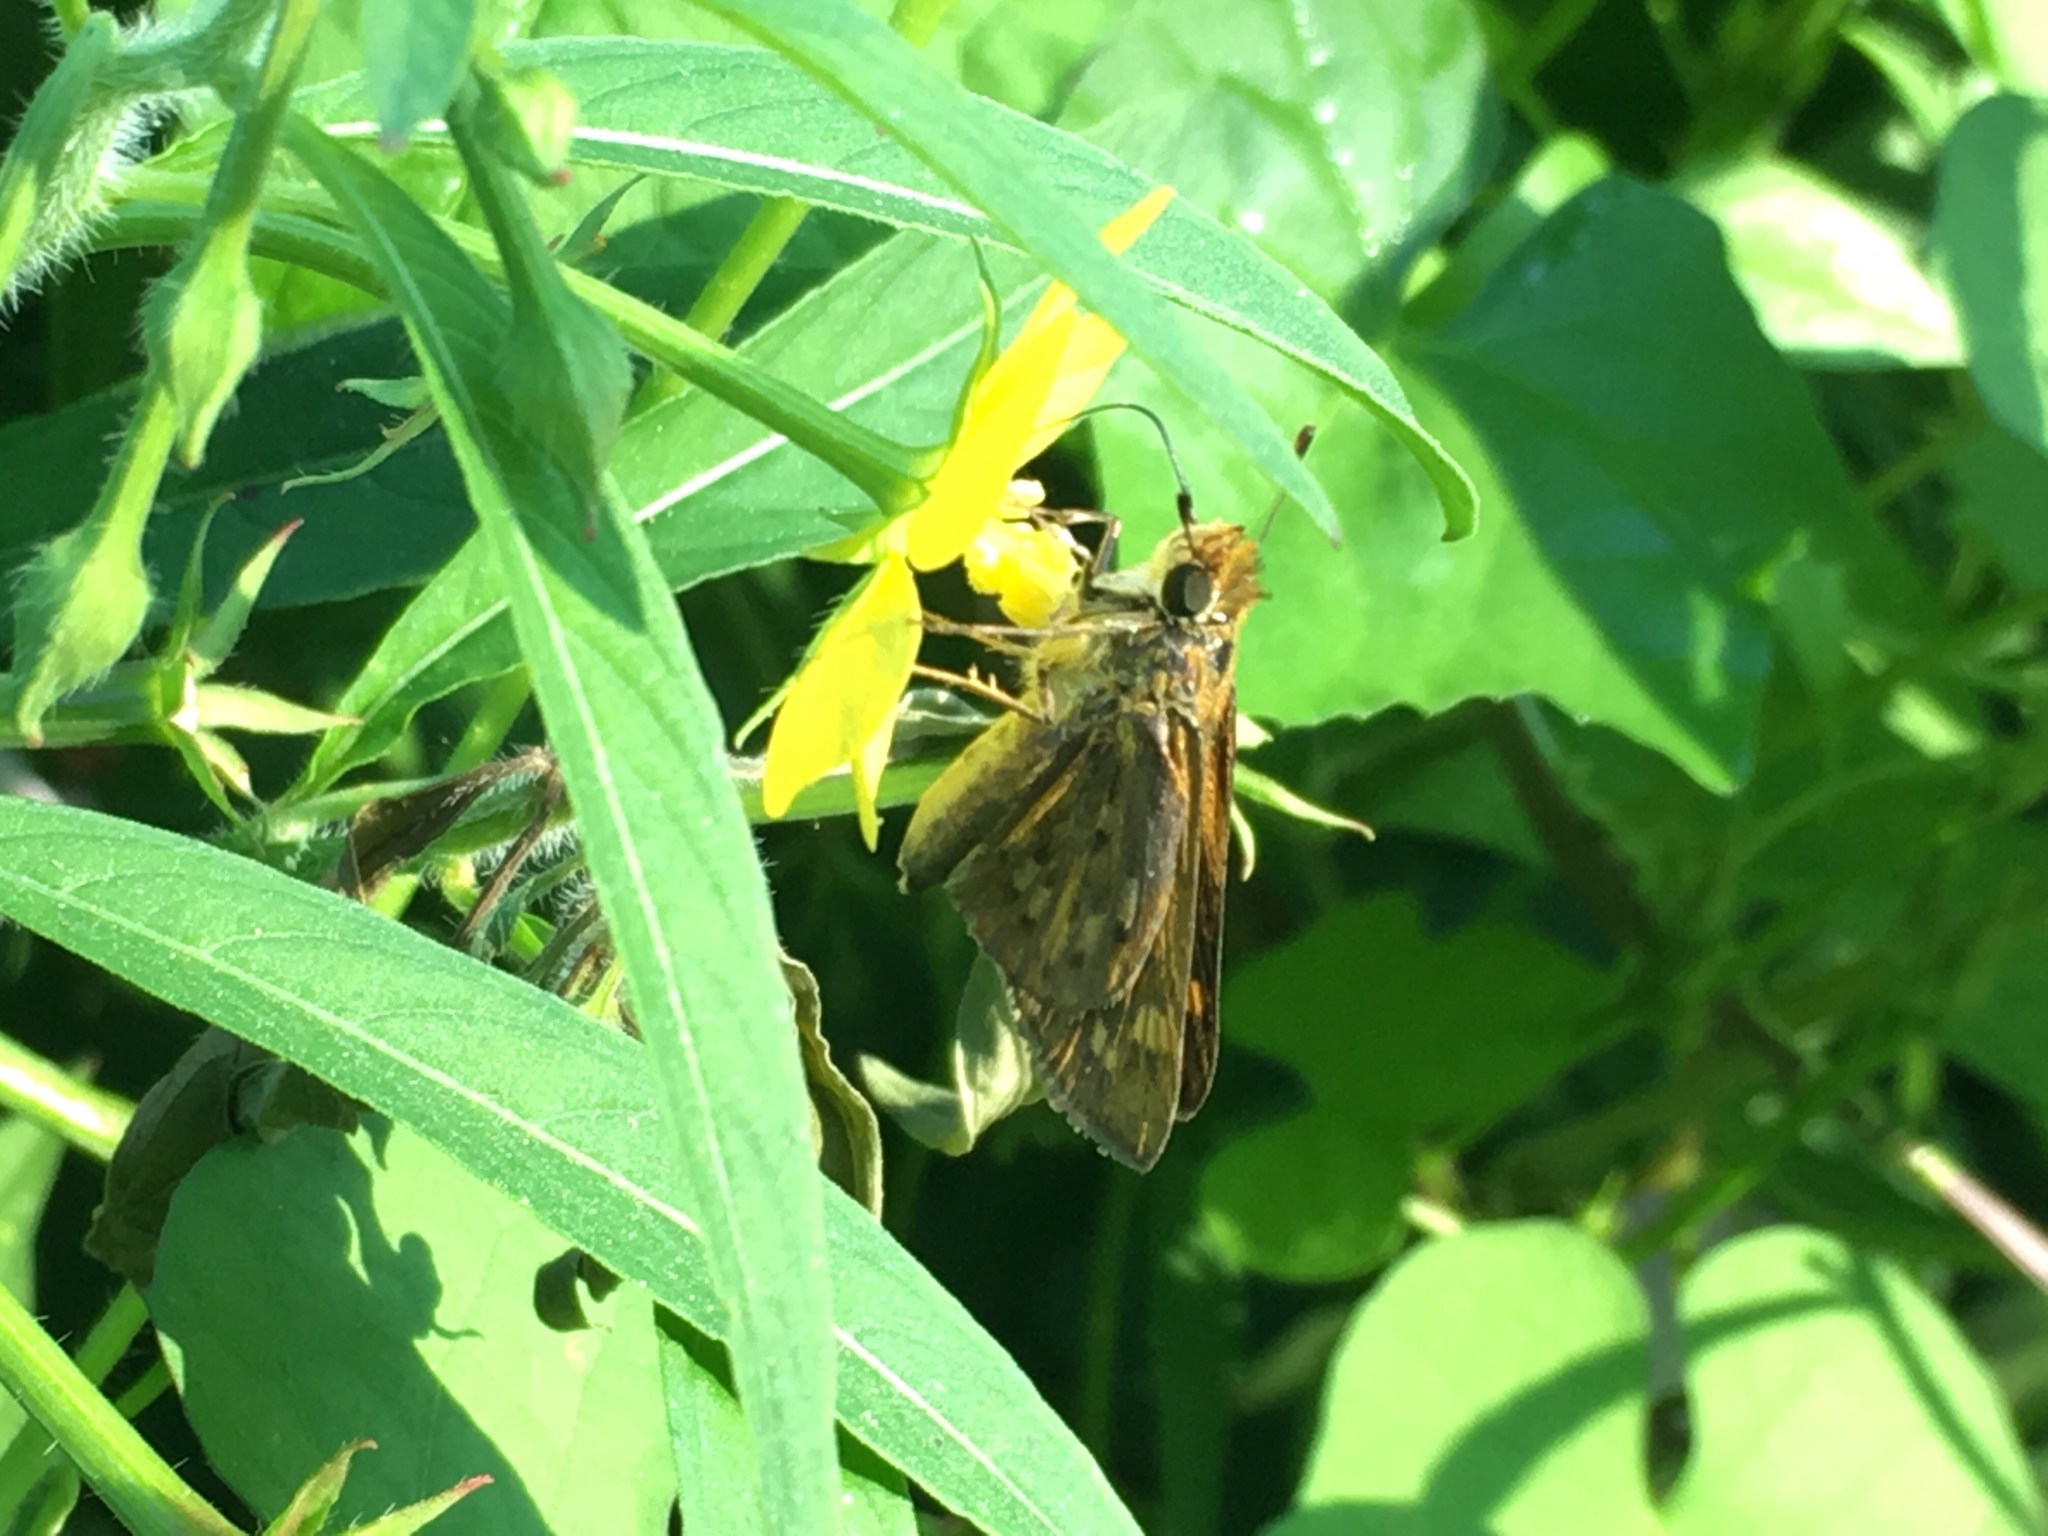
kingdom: Animalia
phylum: Arthropoda
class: Insecta
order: Lepidoptera
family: Hesperiidae
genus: Hylephila
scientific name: Hylephila phyleus
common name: Fiery skipper
